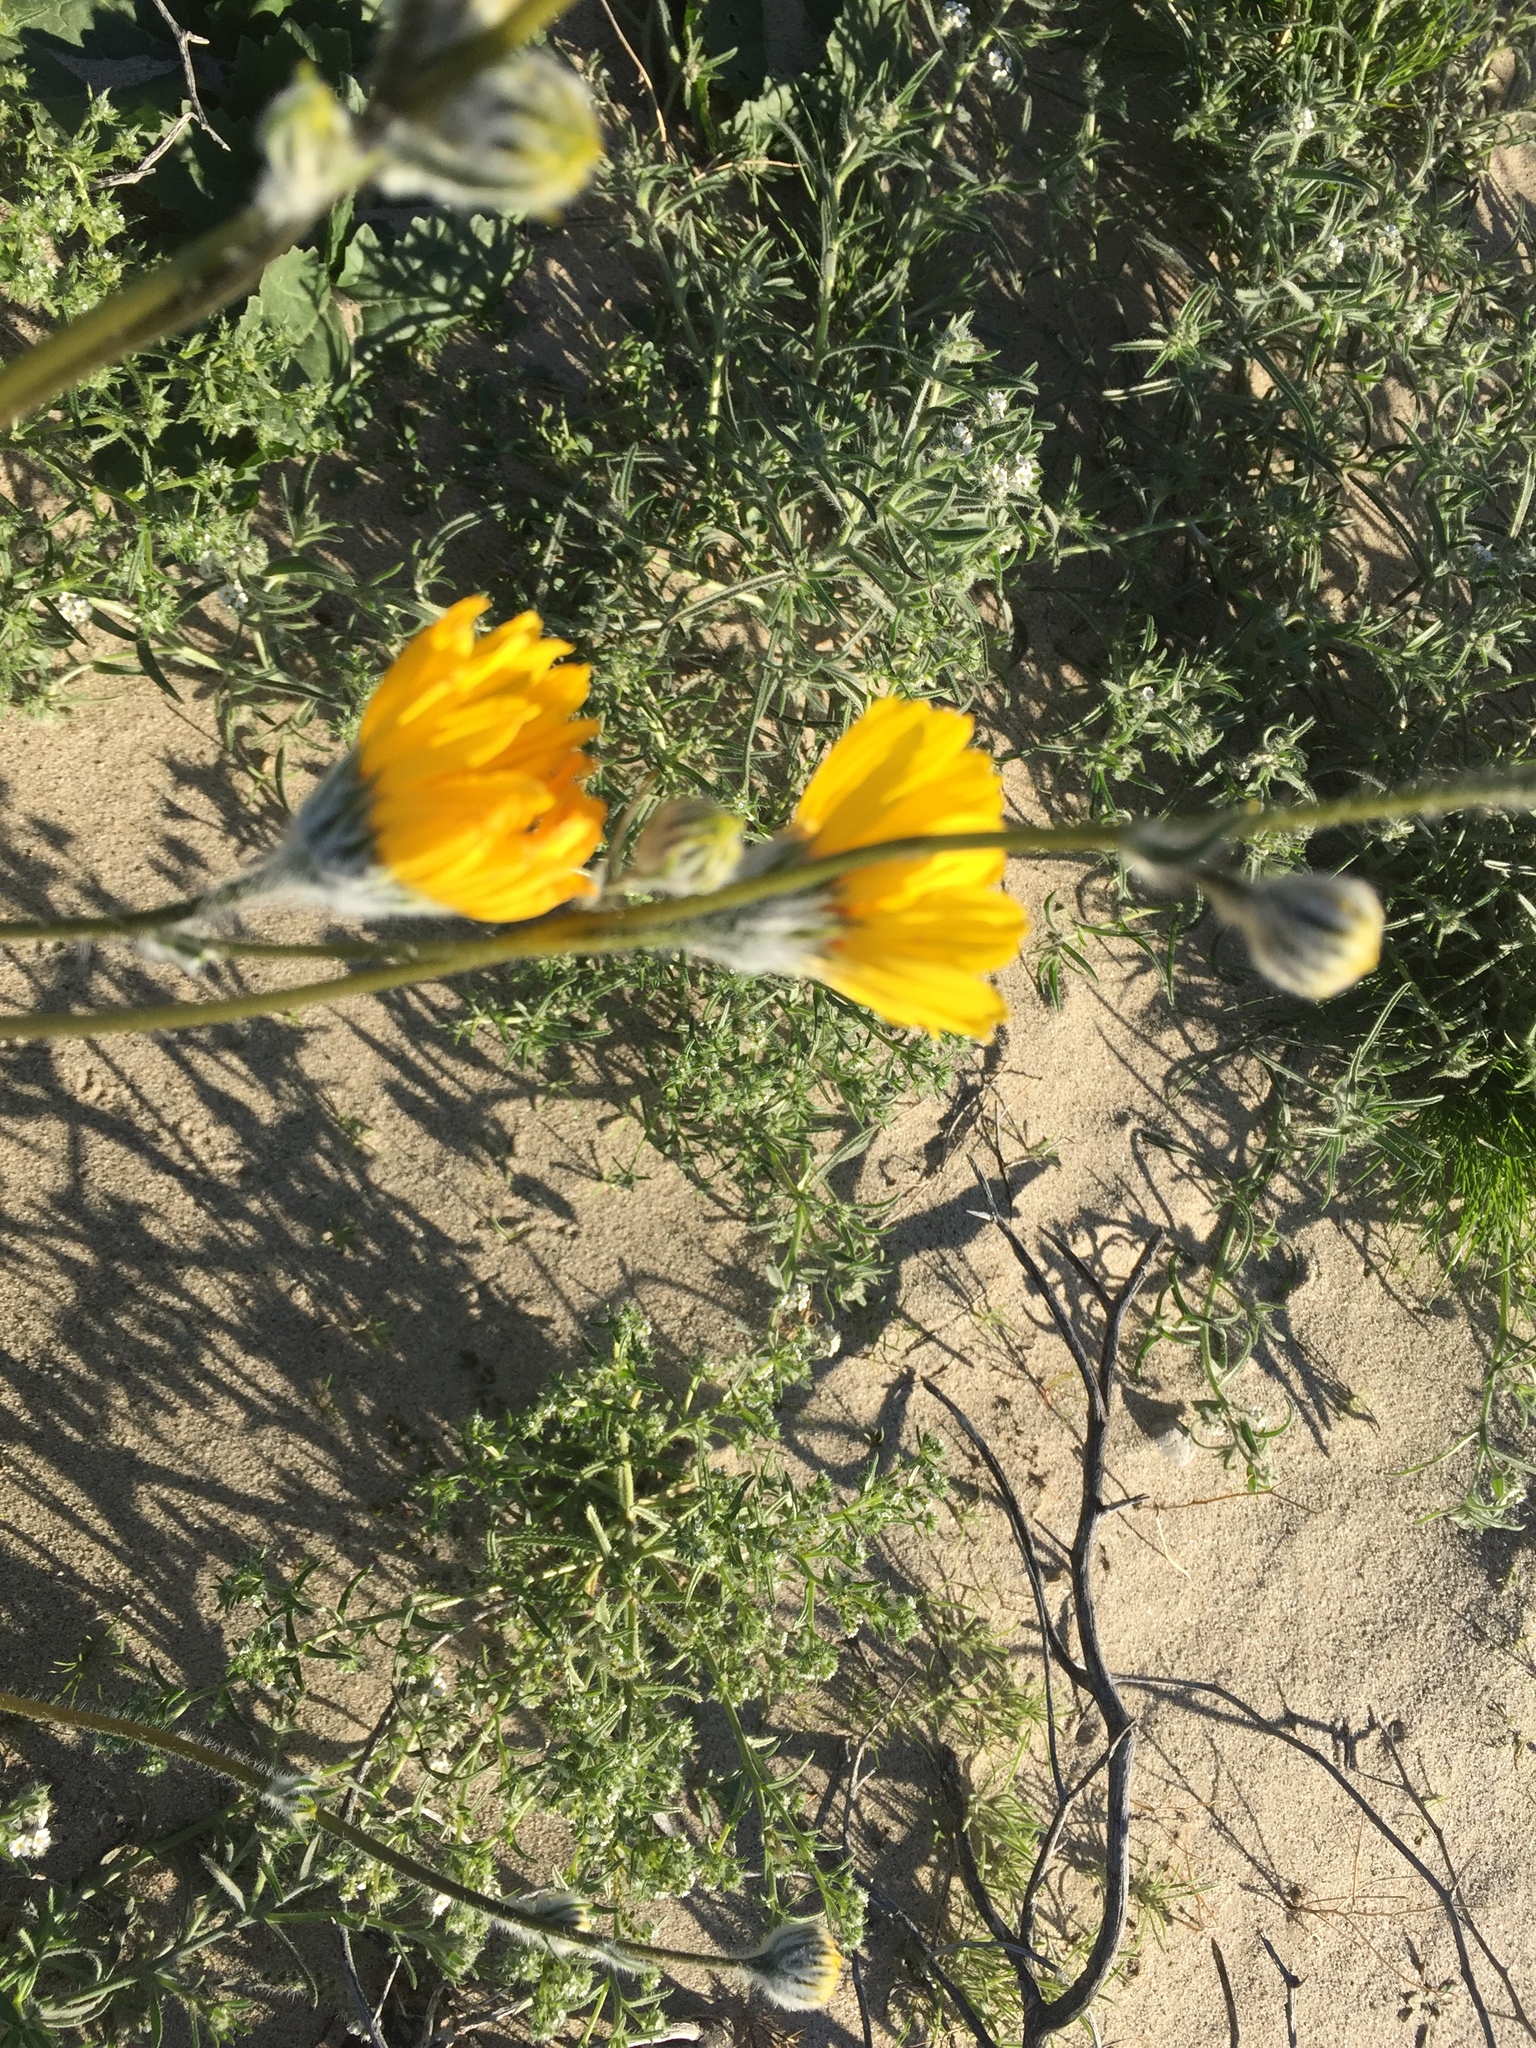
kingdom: Plantae
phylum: Tracheophyta
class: Magnoliopsida
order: Asterales
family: Asteraceae
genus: Geraea
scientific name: Geraea canescens
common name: Desert-gold
